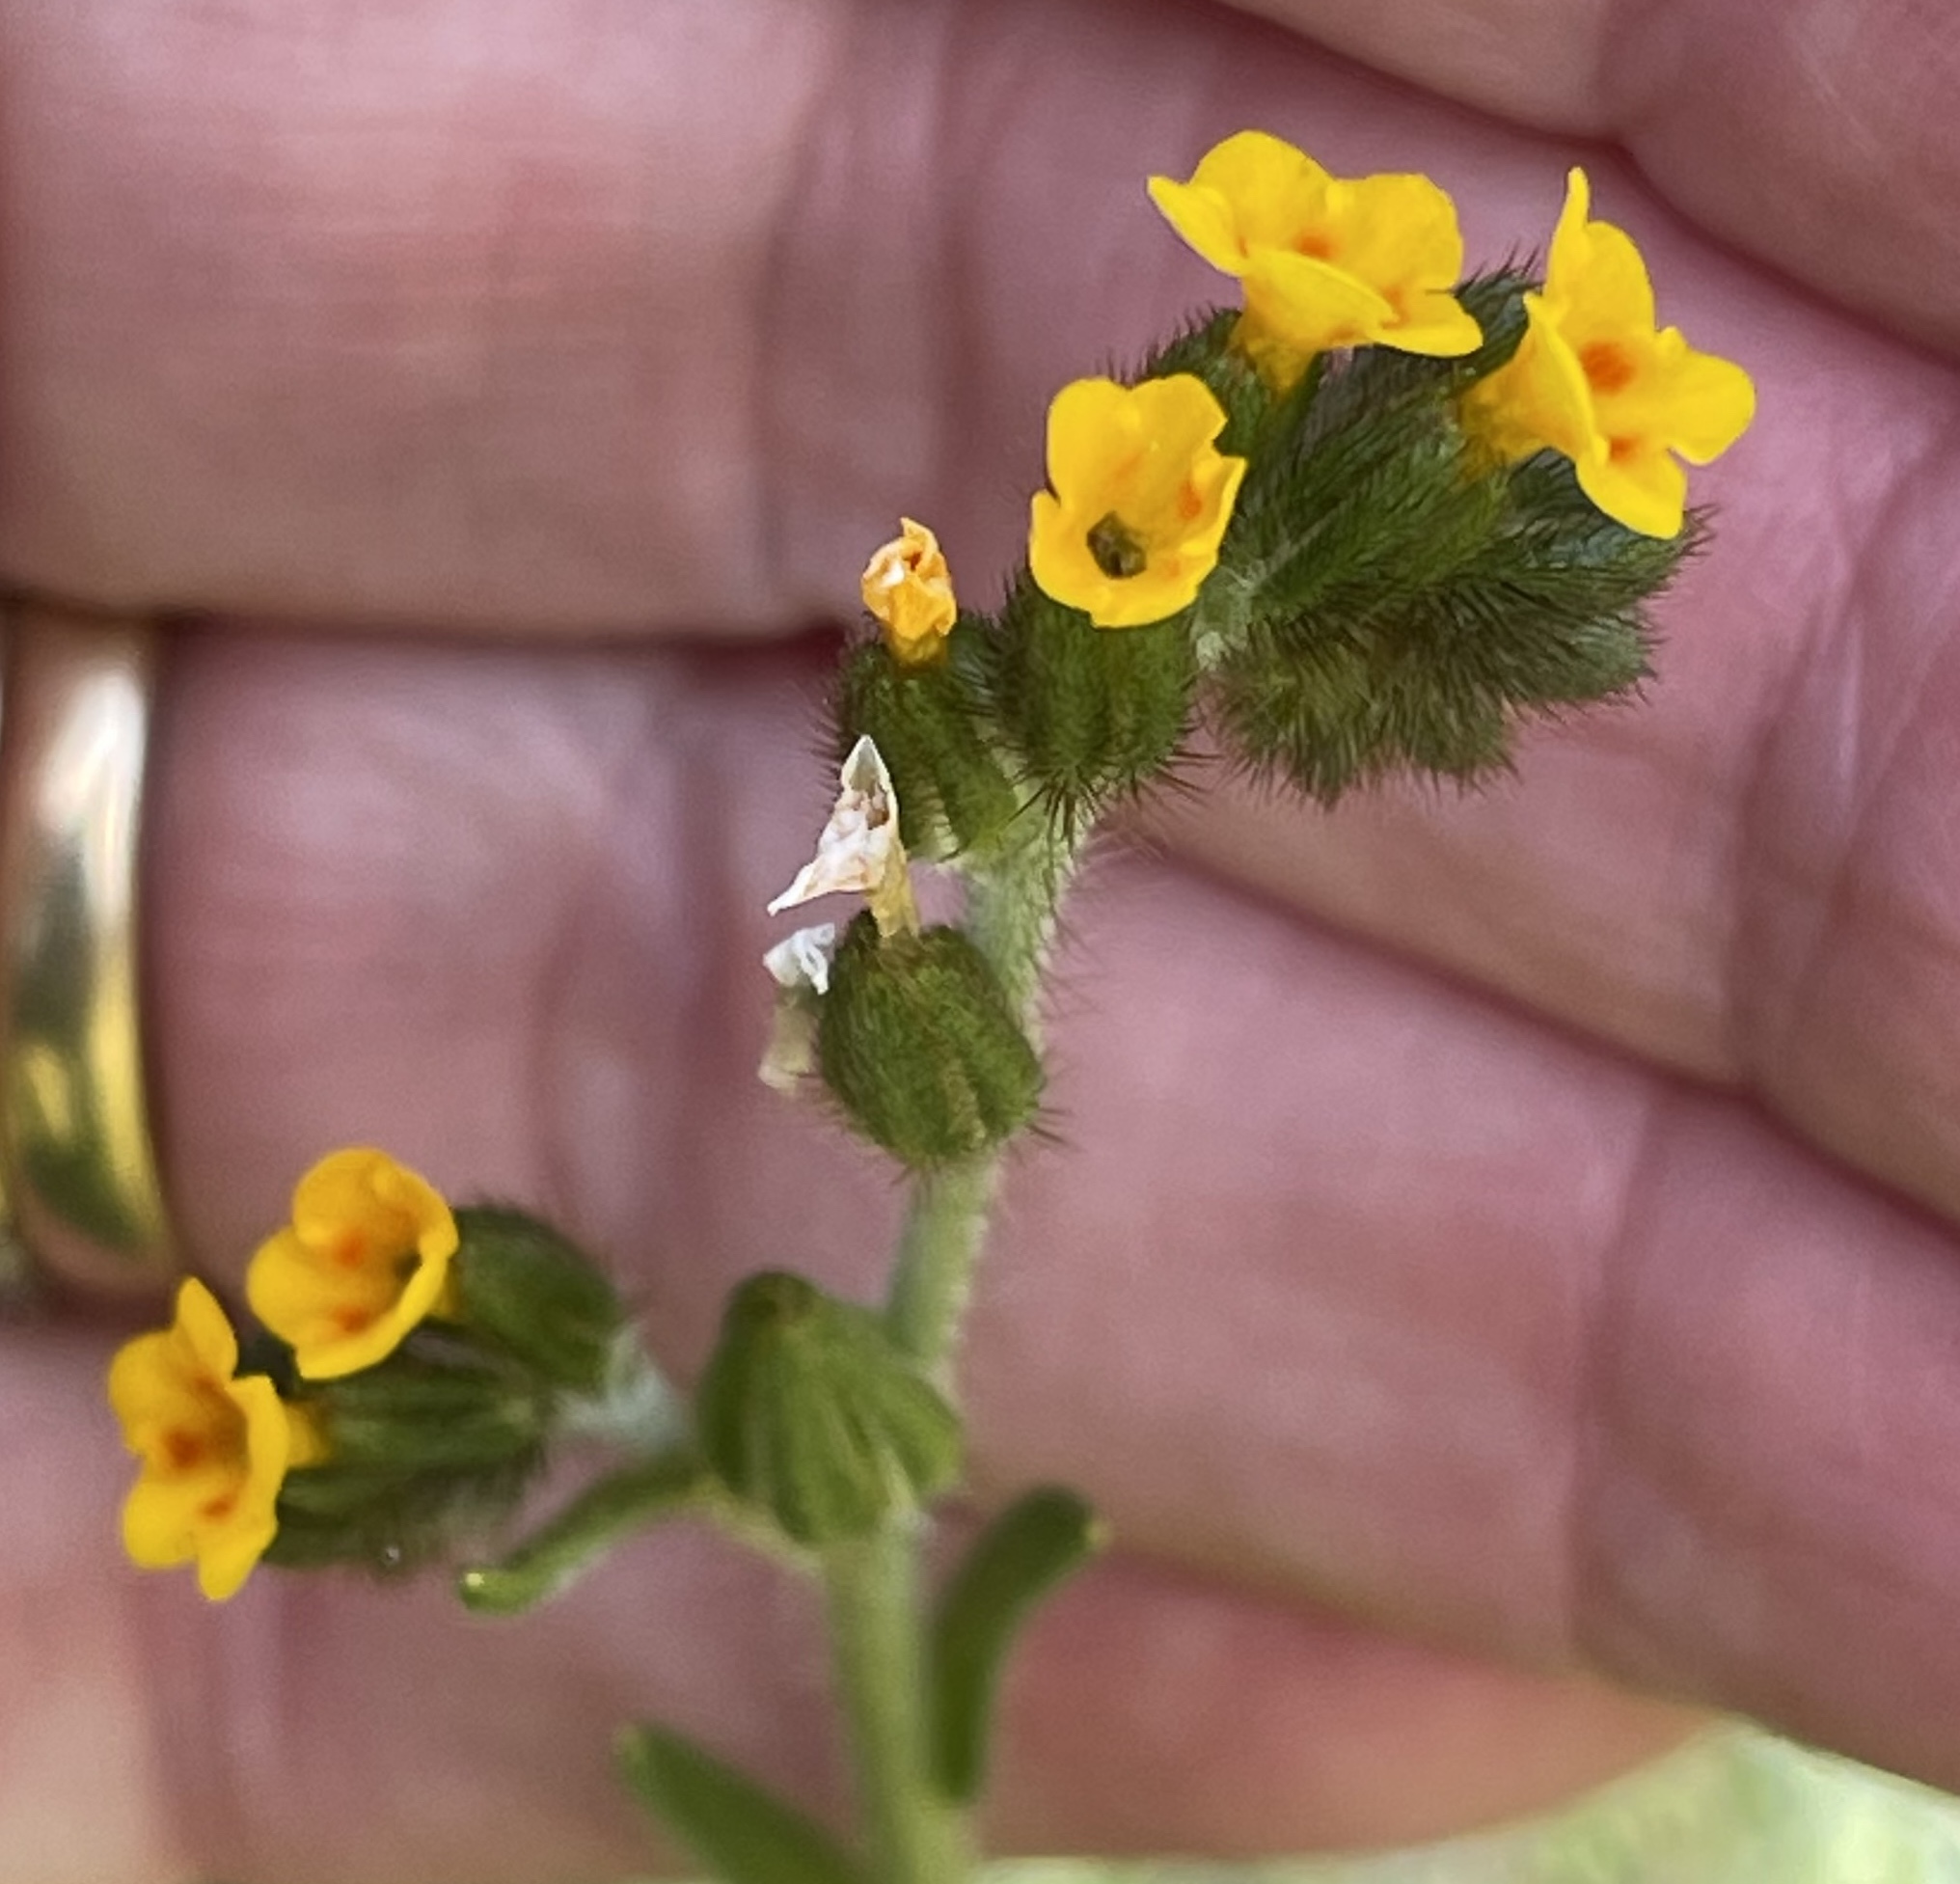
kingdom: Plantae
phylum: Tracheophyta
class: Magnoliopsida
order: Boraginales
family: Boraginaceae
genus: Amsinckia
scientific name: Amsinckia menziesii
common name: Menzies' fiddleneck
